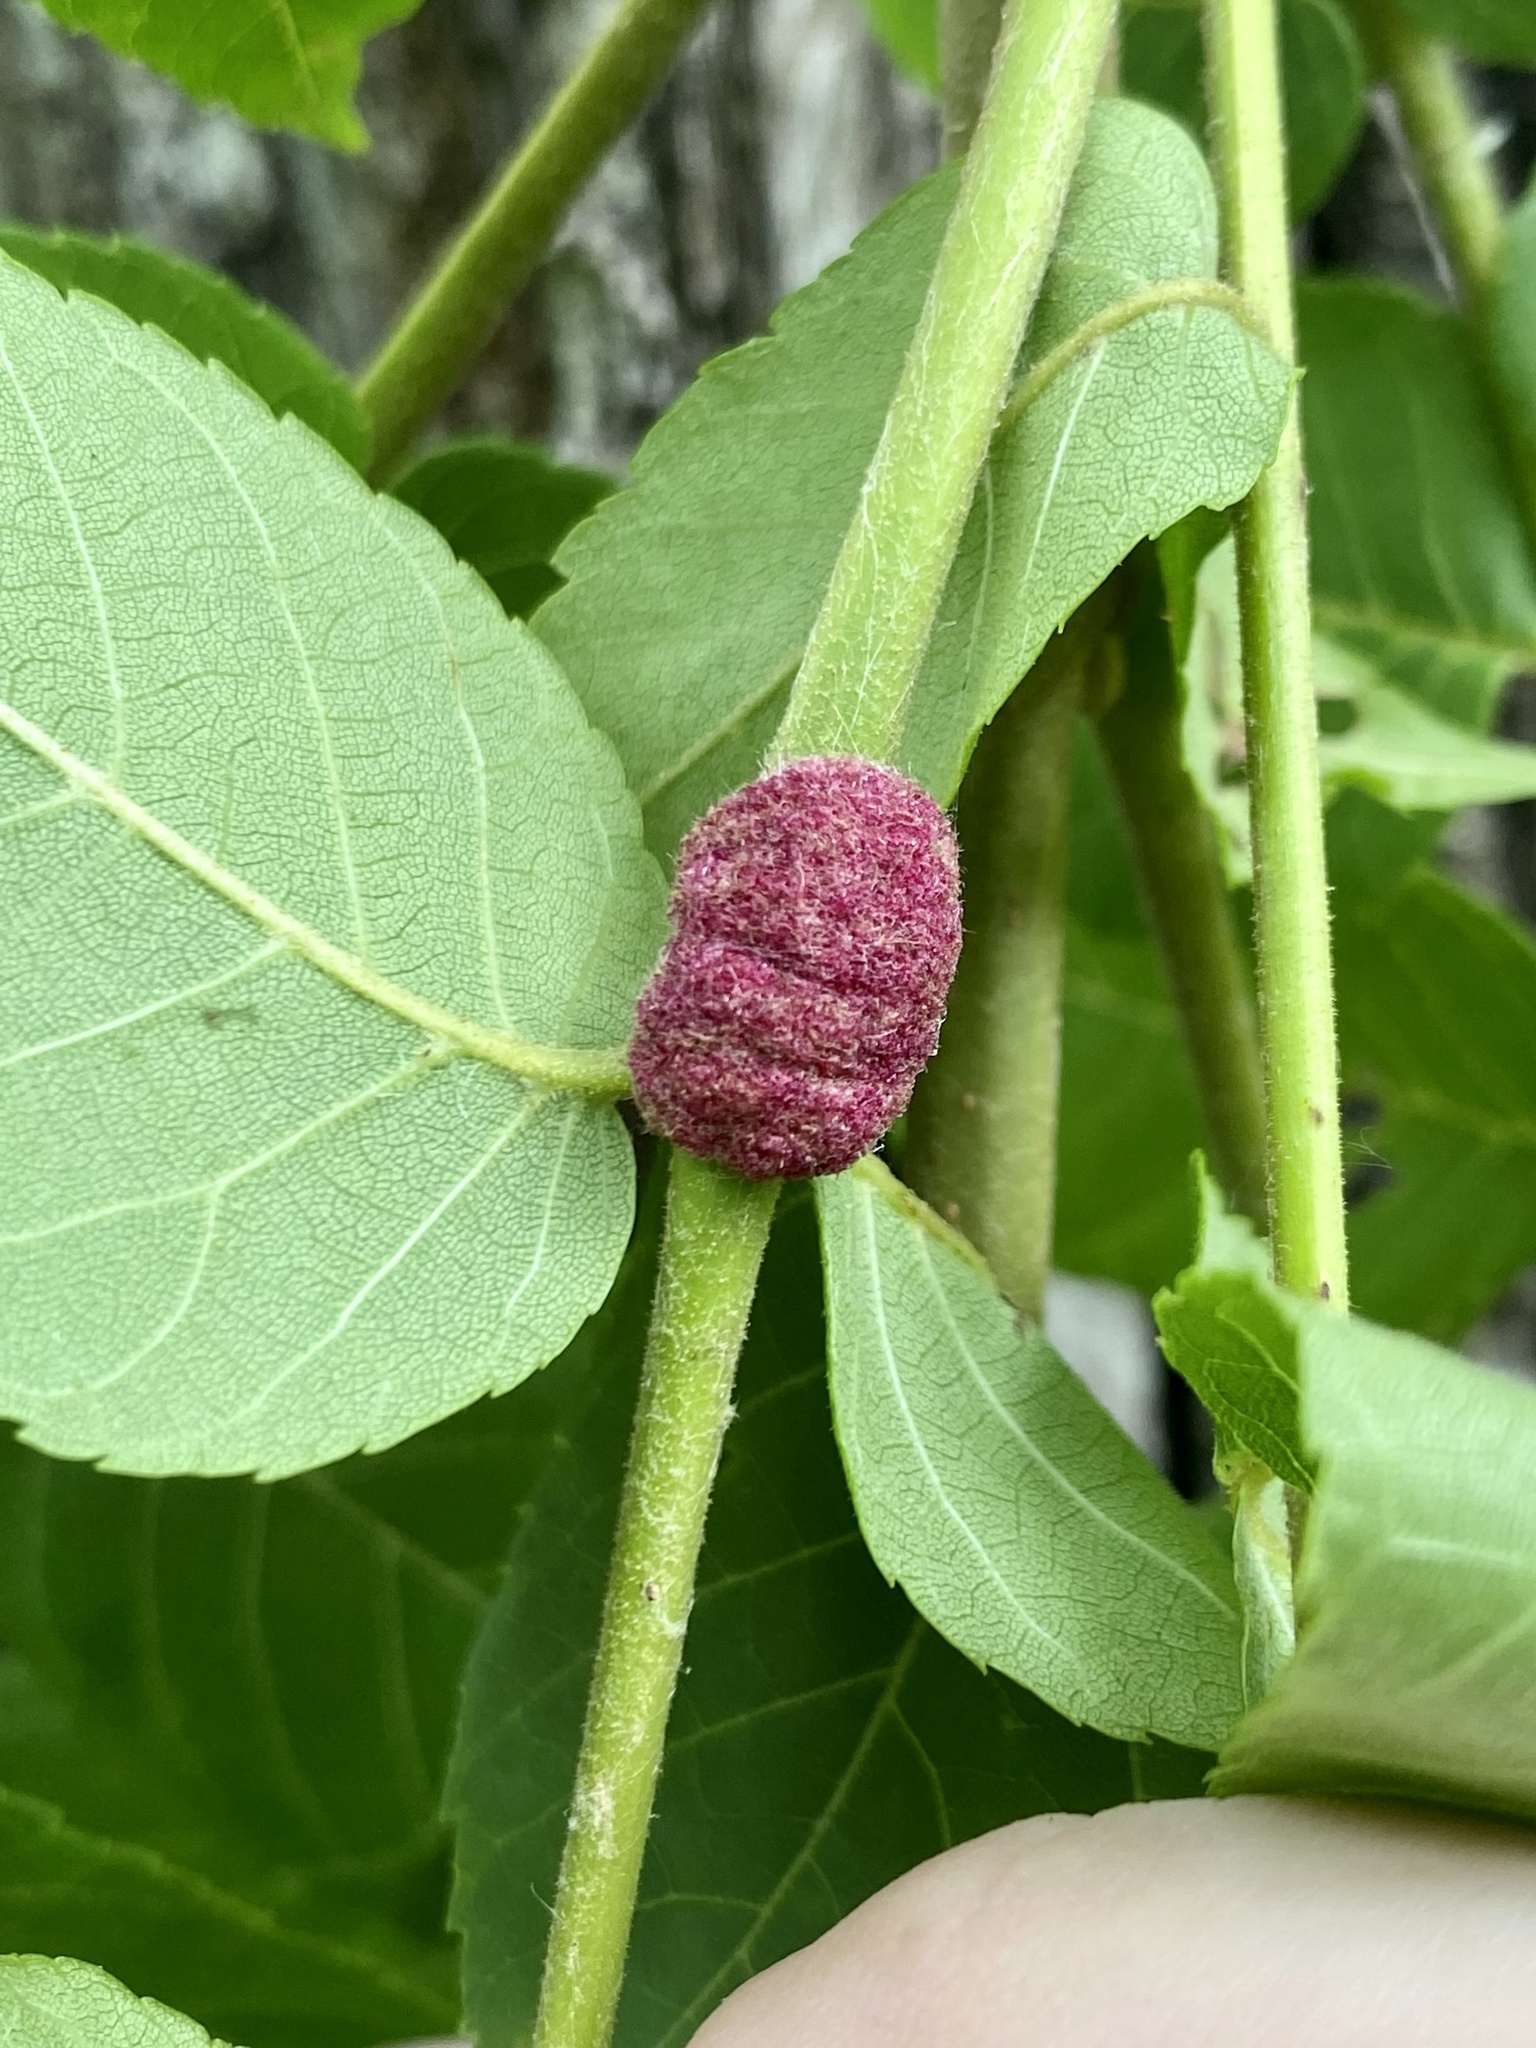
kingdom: Animalia
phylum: Arthropoda
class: Arachnida
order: Trombidiformes
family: Eriophyidae
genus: Aceria
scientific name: Aceria
